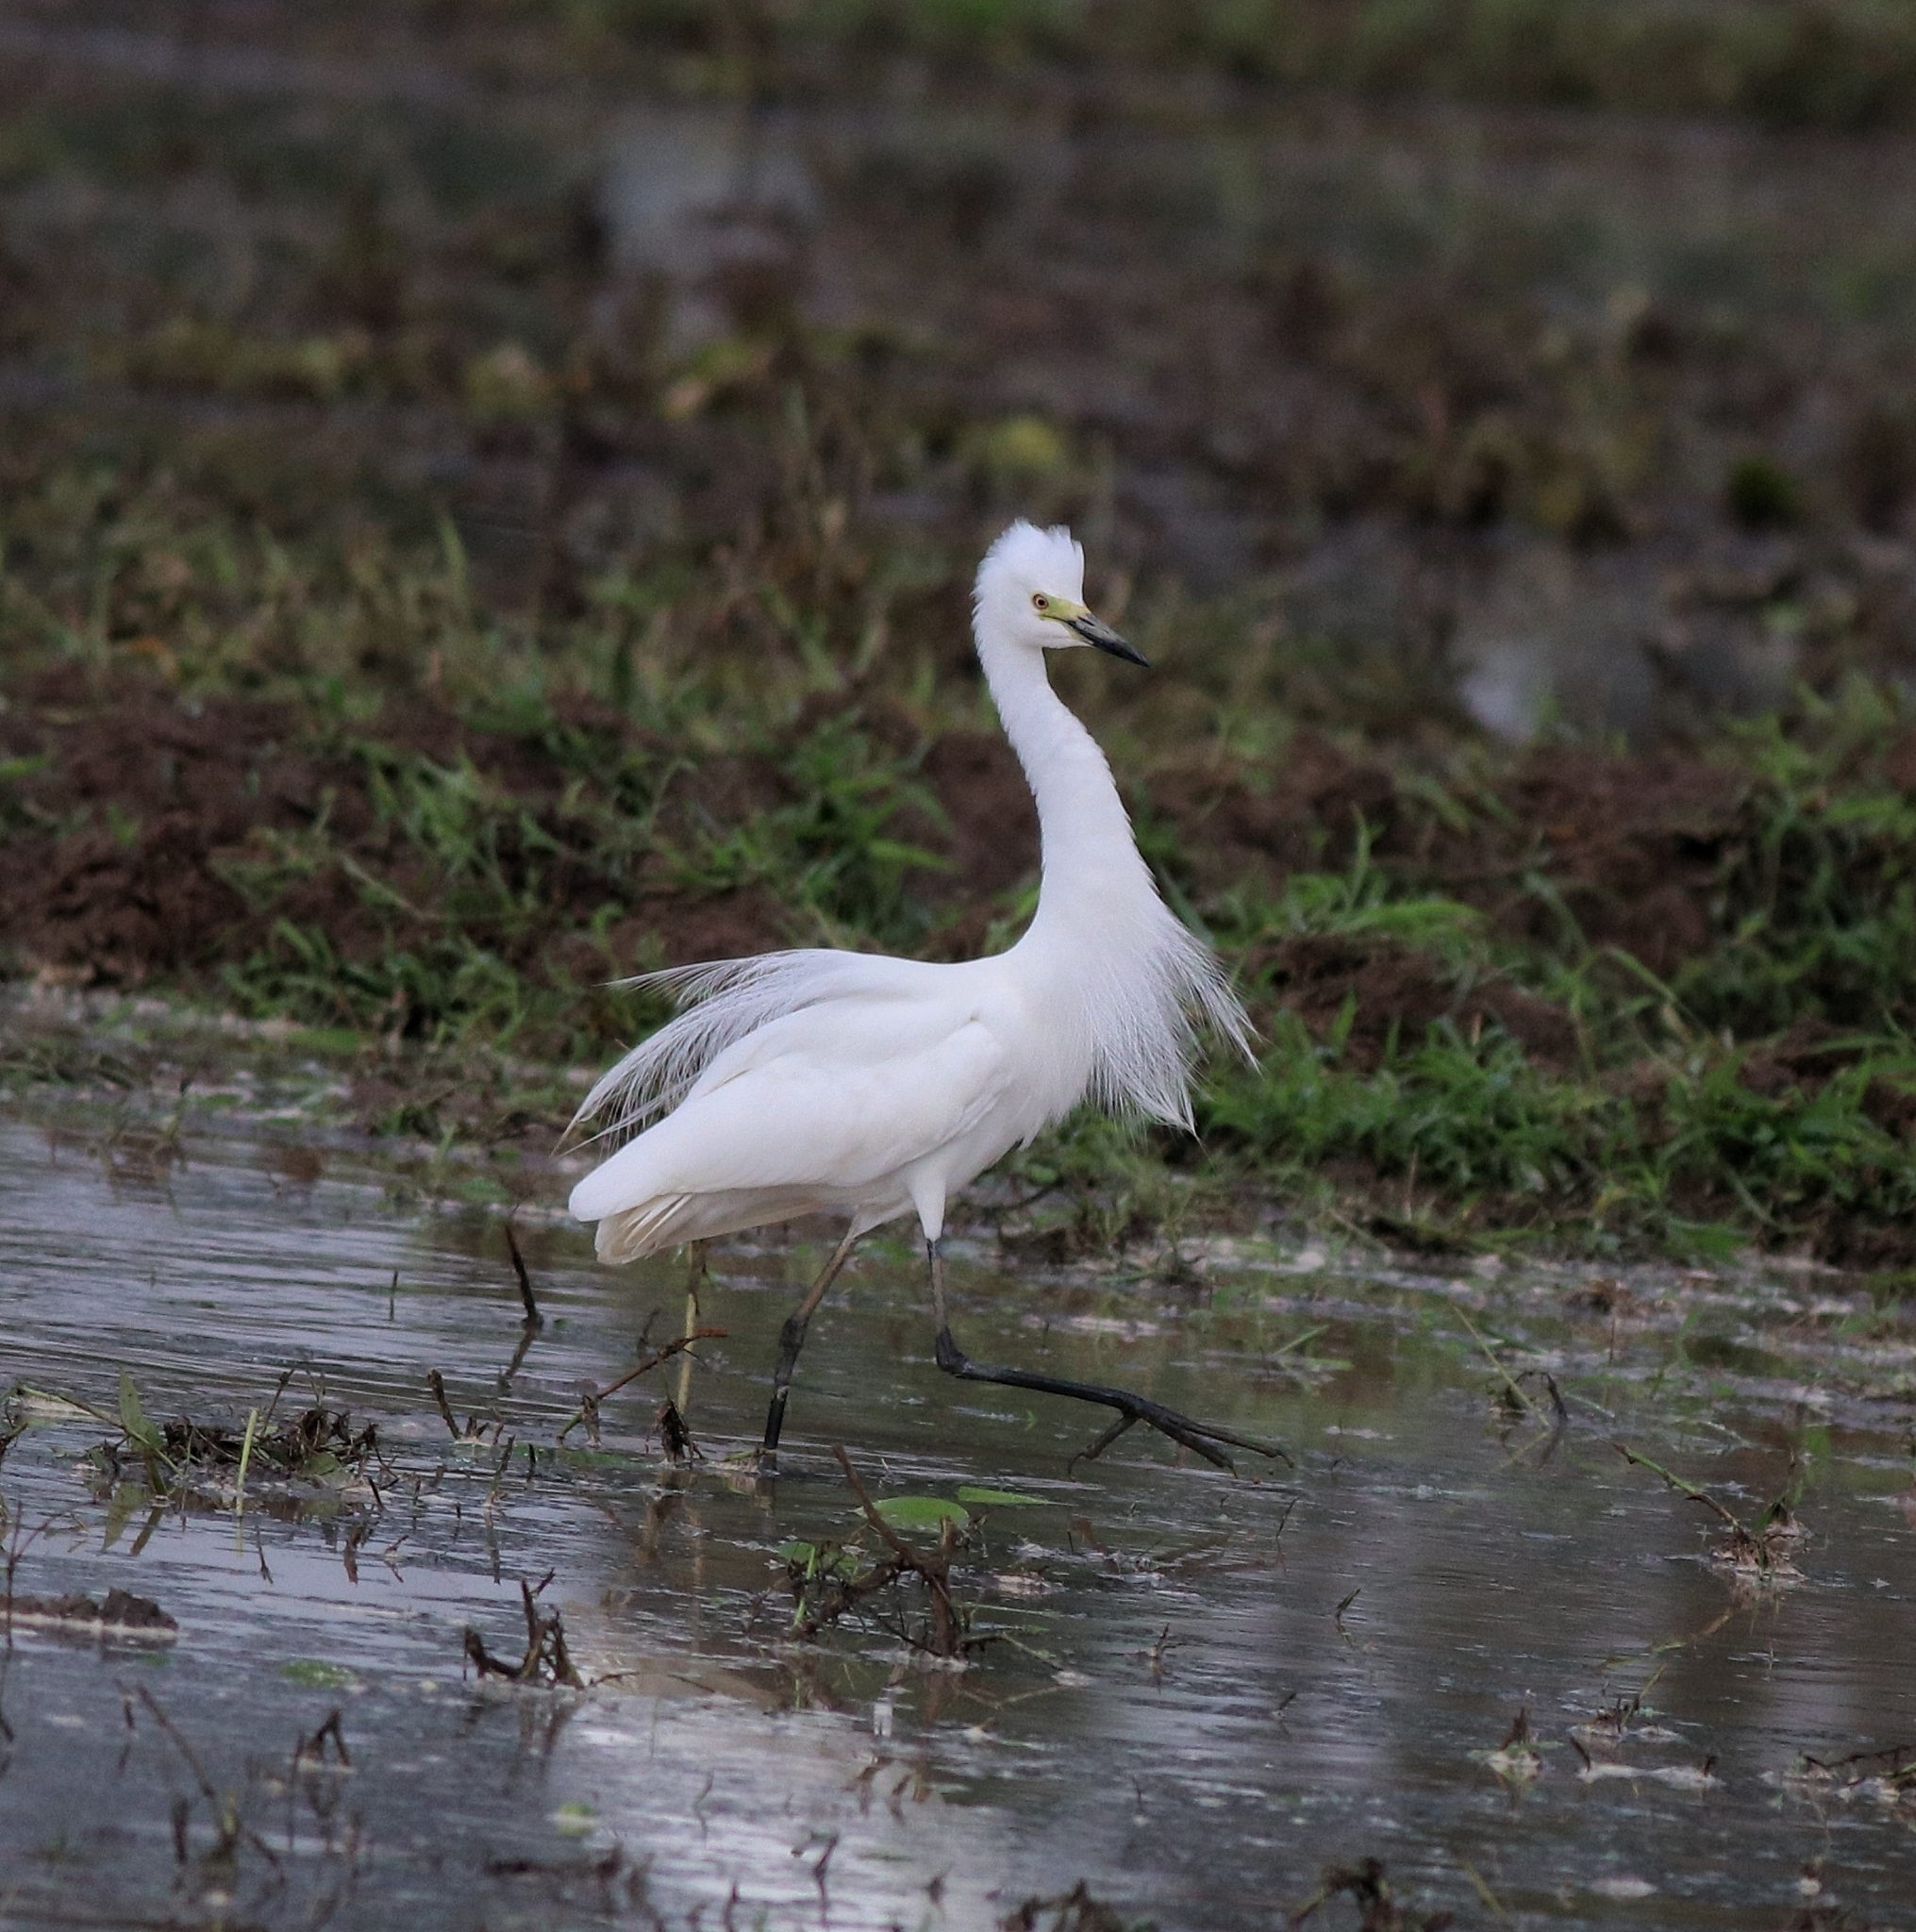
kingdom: Animalia
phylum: Chordata
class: Aves
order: Pelecaniformes
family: Ardeidae
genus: Egretta
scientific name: Egretta intermedia
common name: Intermediate egret
